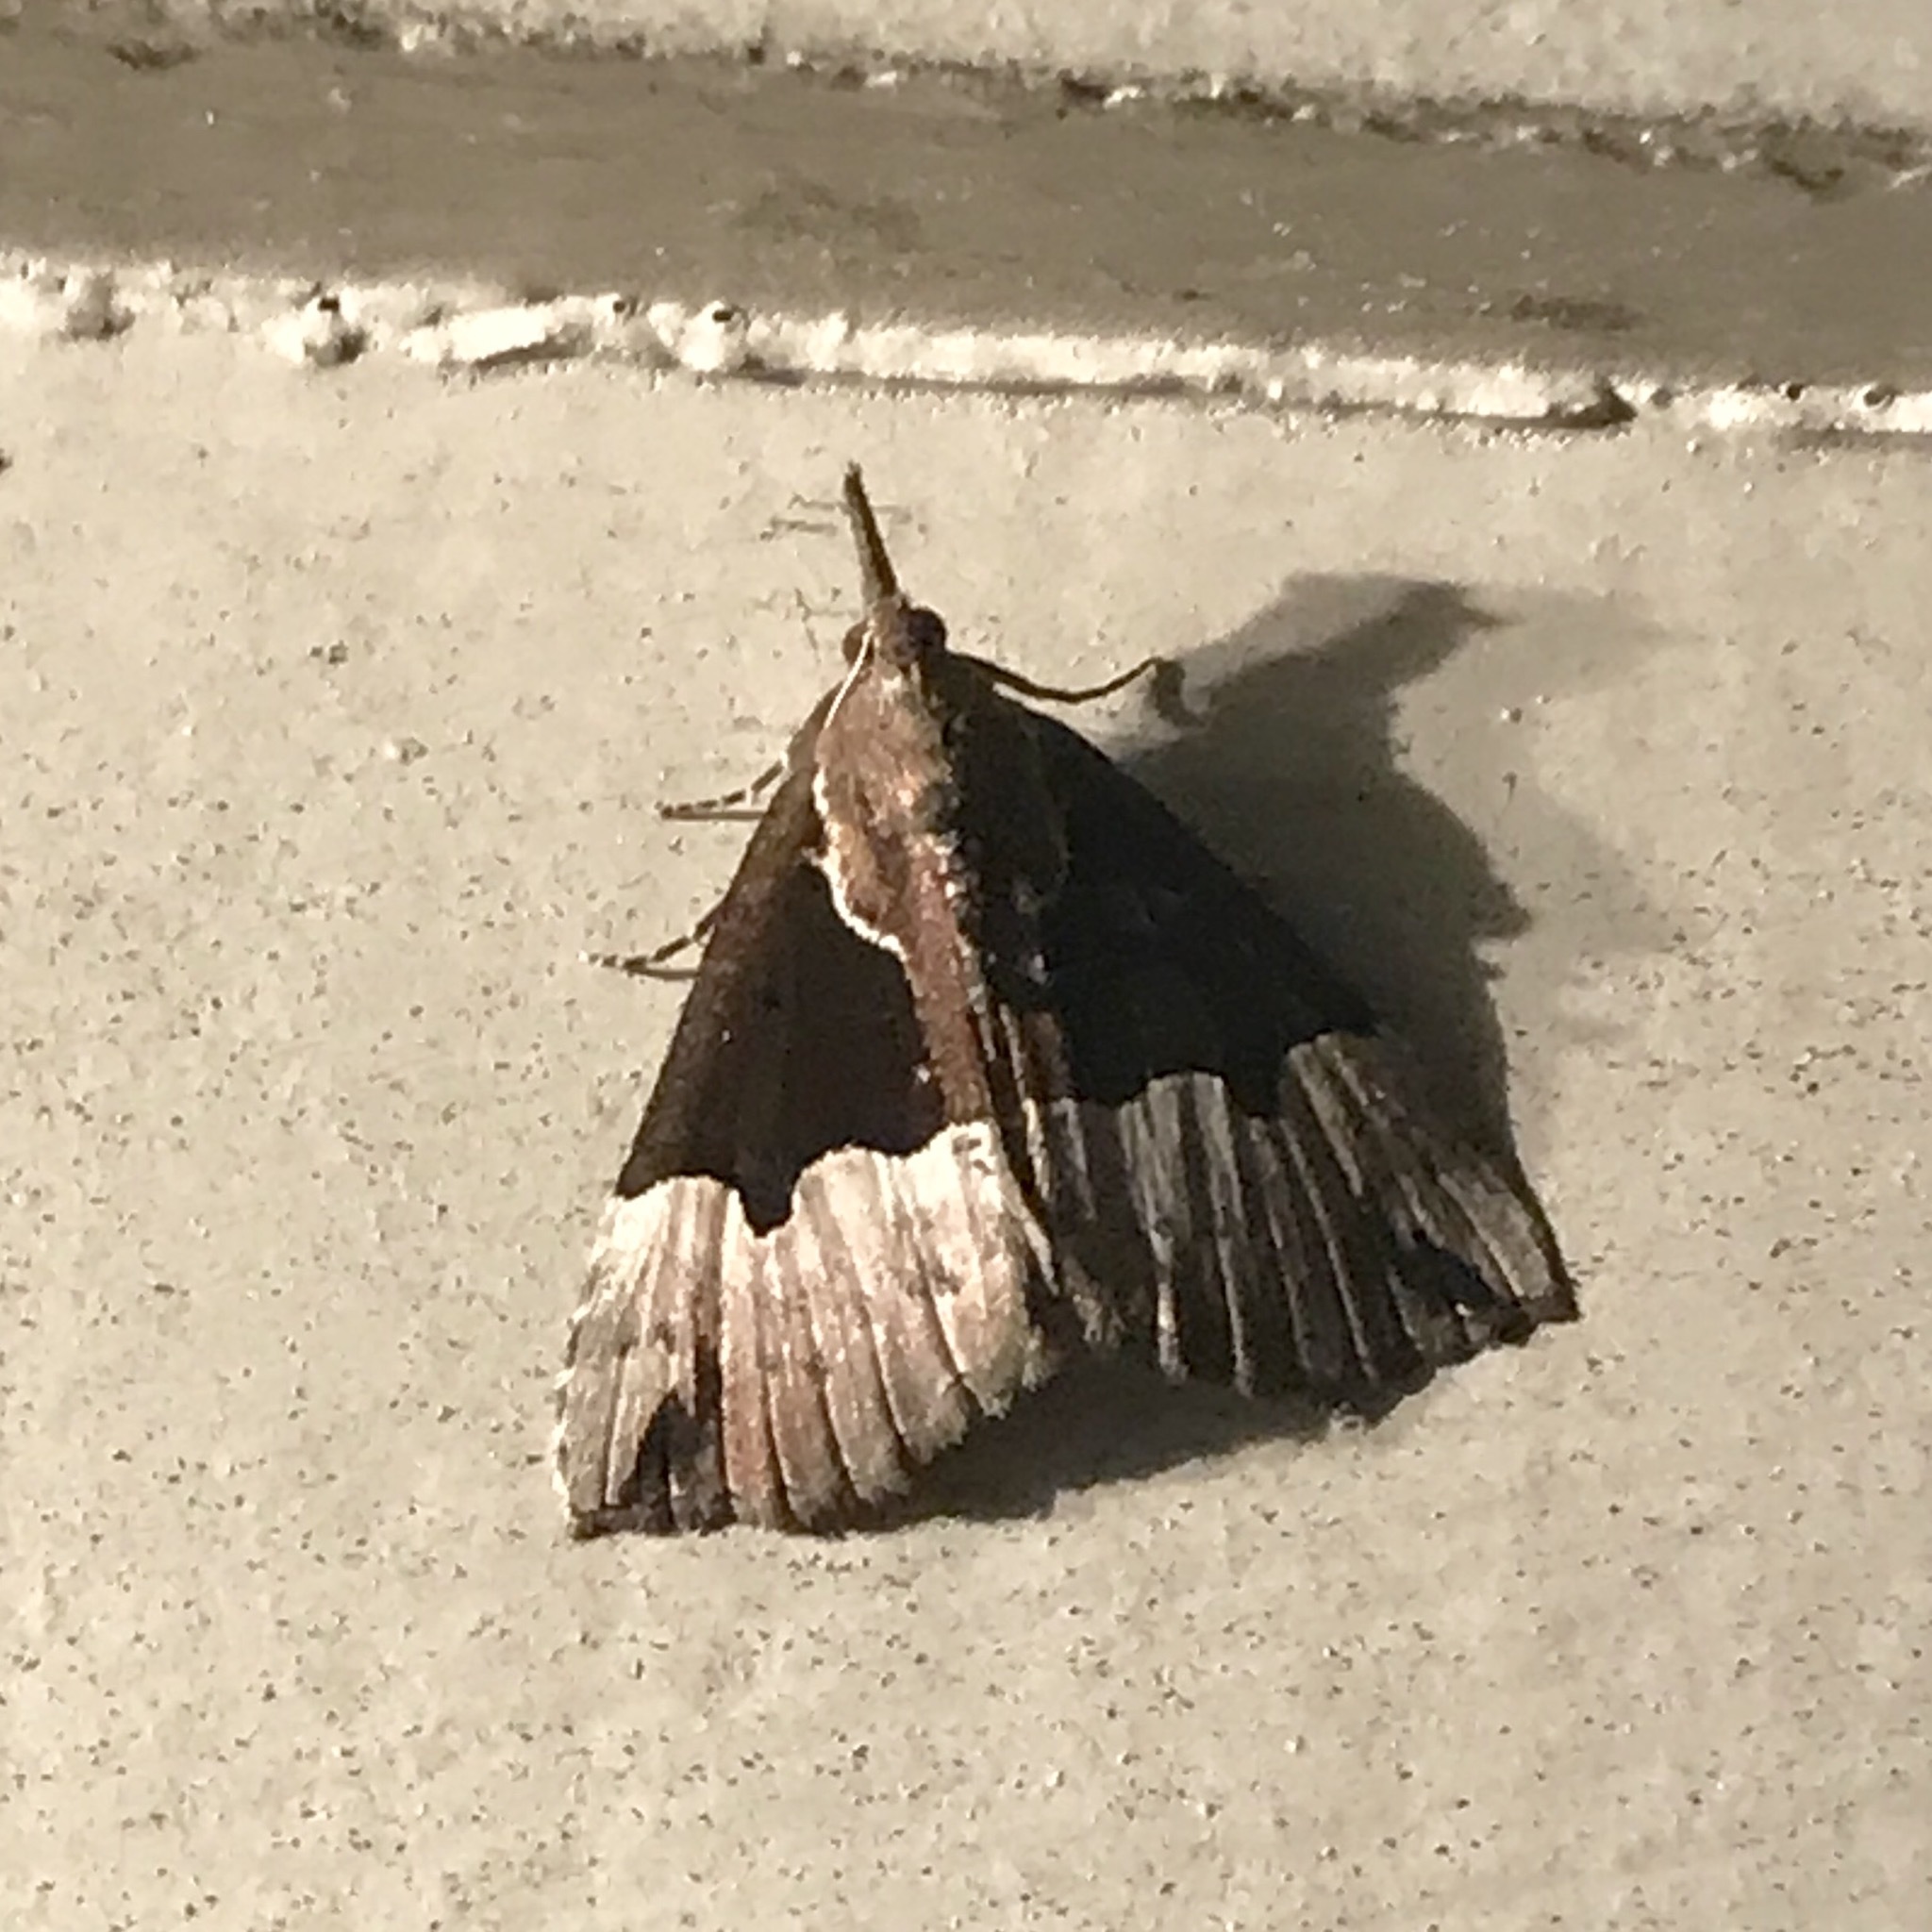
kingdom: Animalia
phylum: Arthropoda
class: Insecta
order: Lepidoptera
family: Erebidae
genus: Hypena
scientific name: Hypena bijugalis
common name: Dimorphic bomolocha moth
